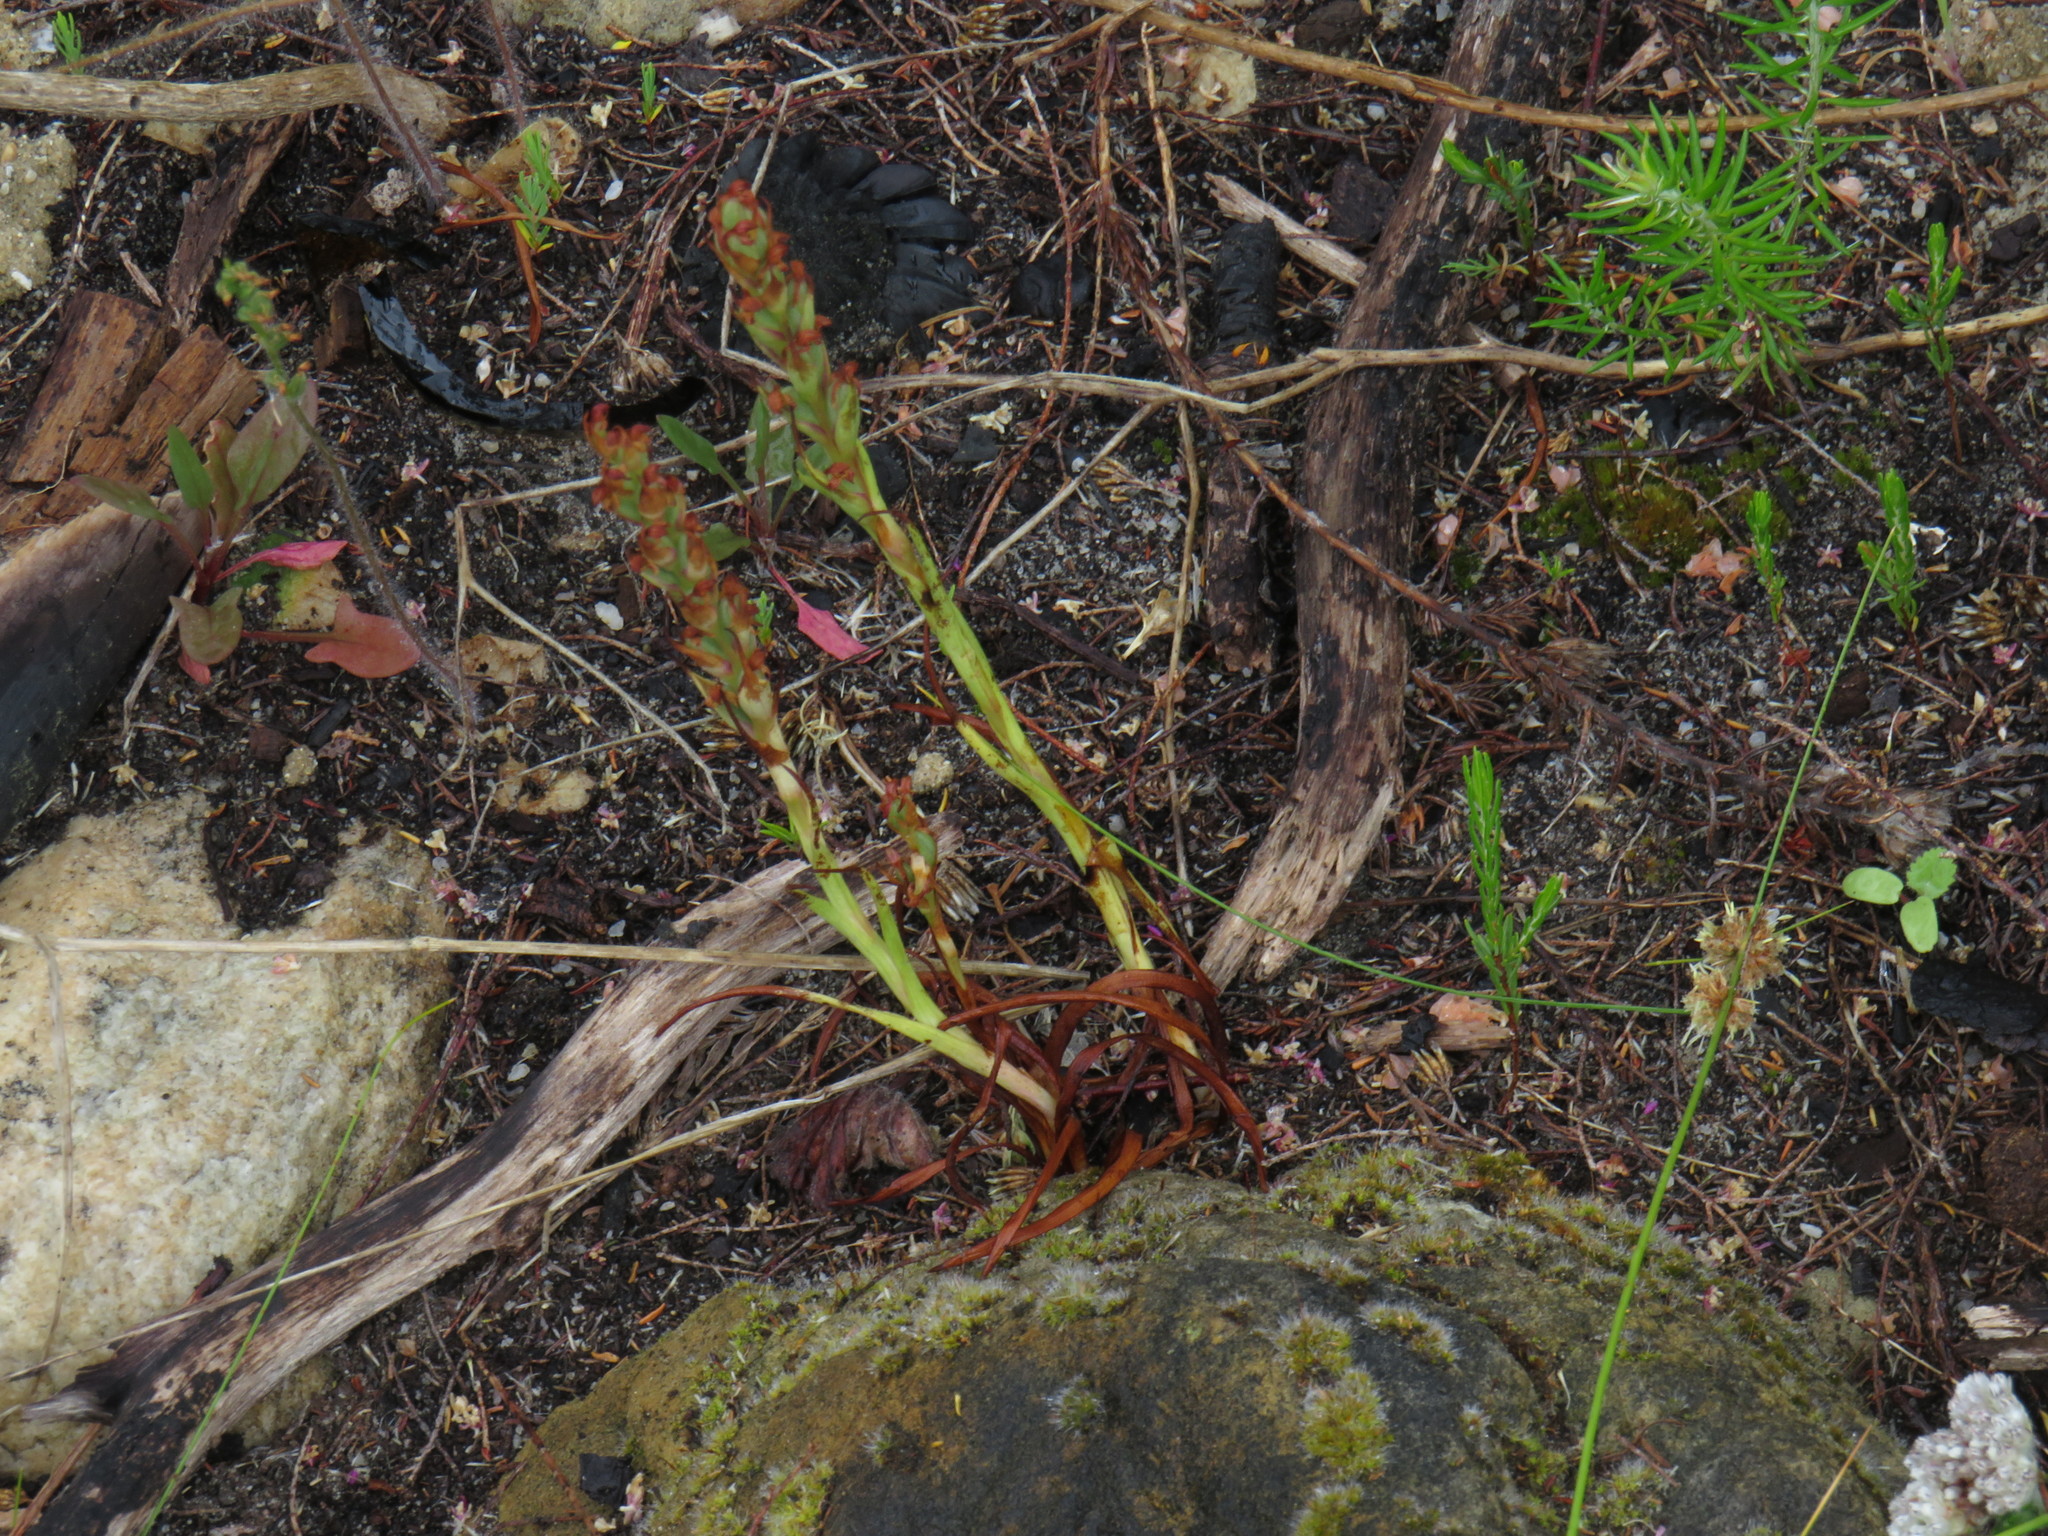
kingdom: Plantae
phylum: Tracheophyta
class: Liliopsida
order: Asparagales
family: Orchidaceae
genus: Disa
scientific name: Disa bracteata
